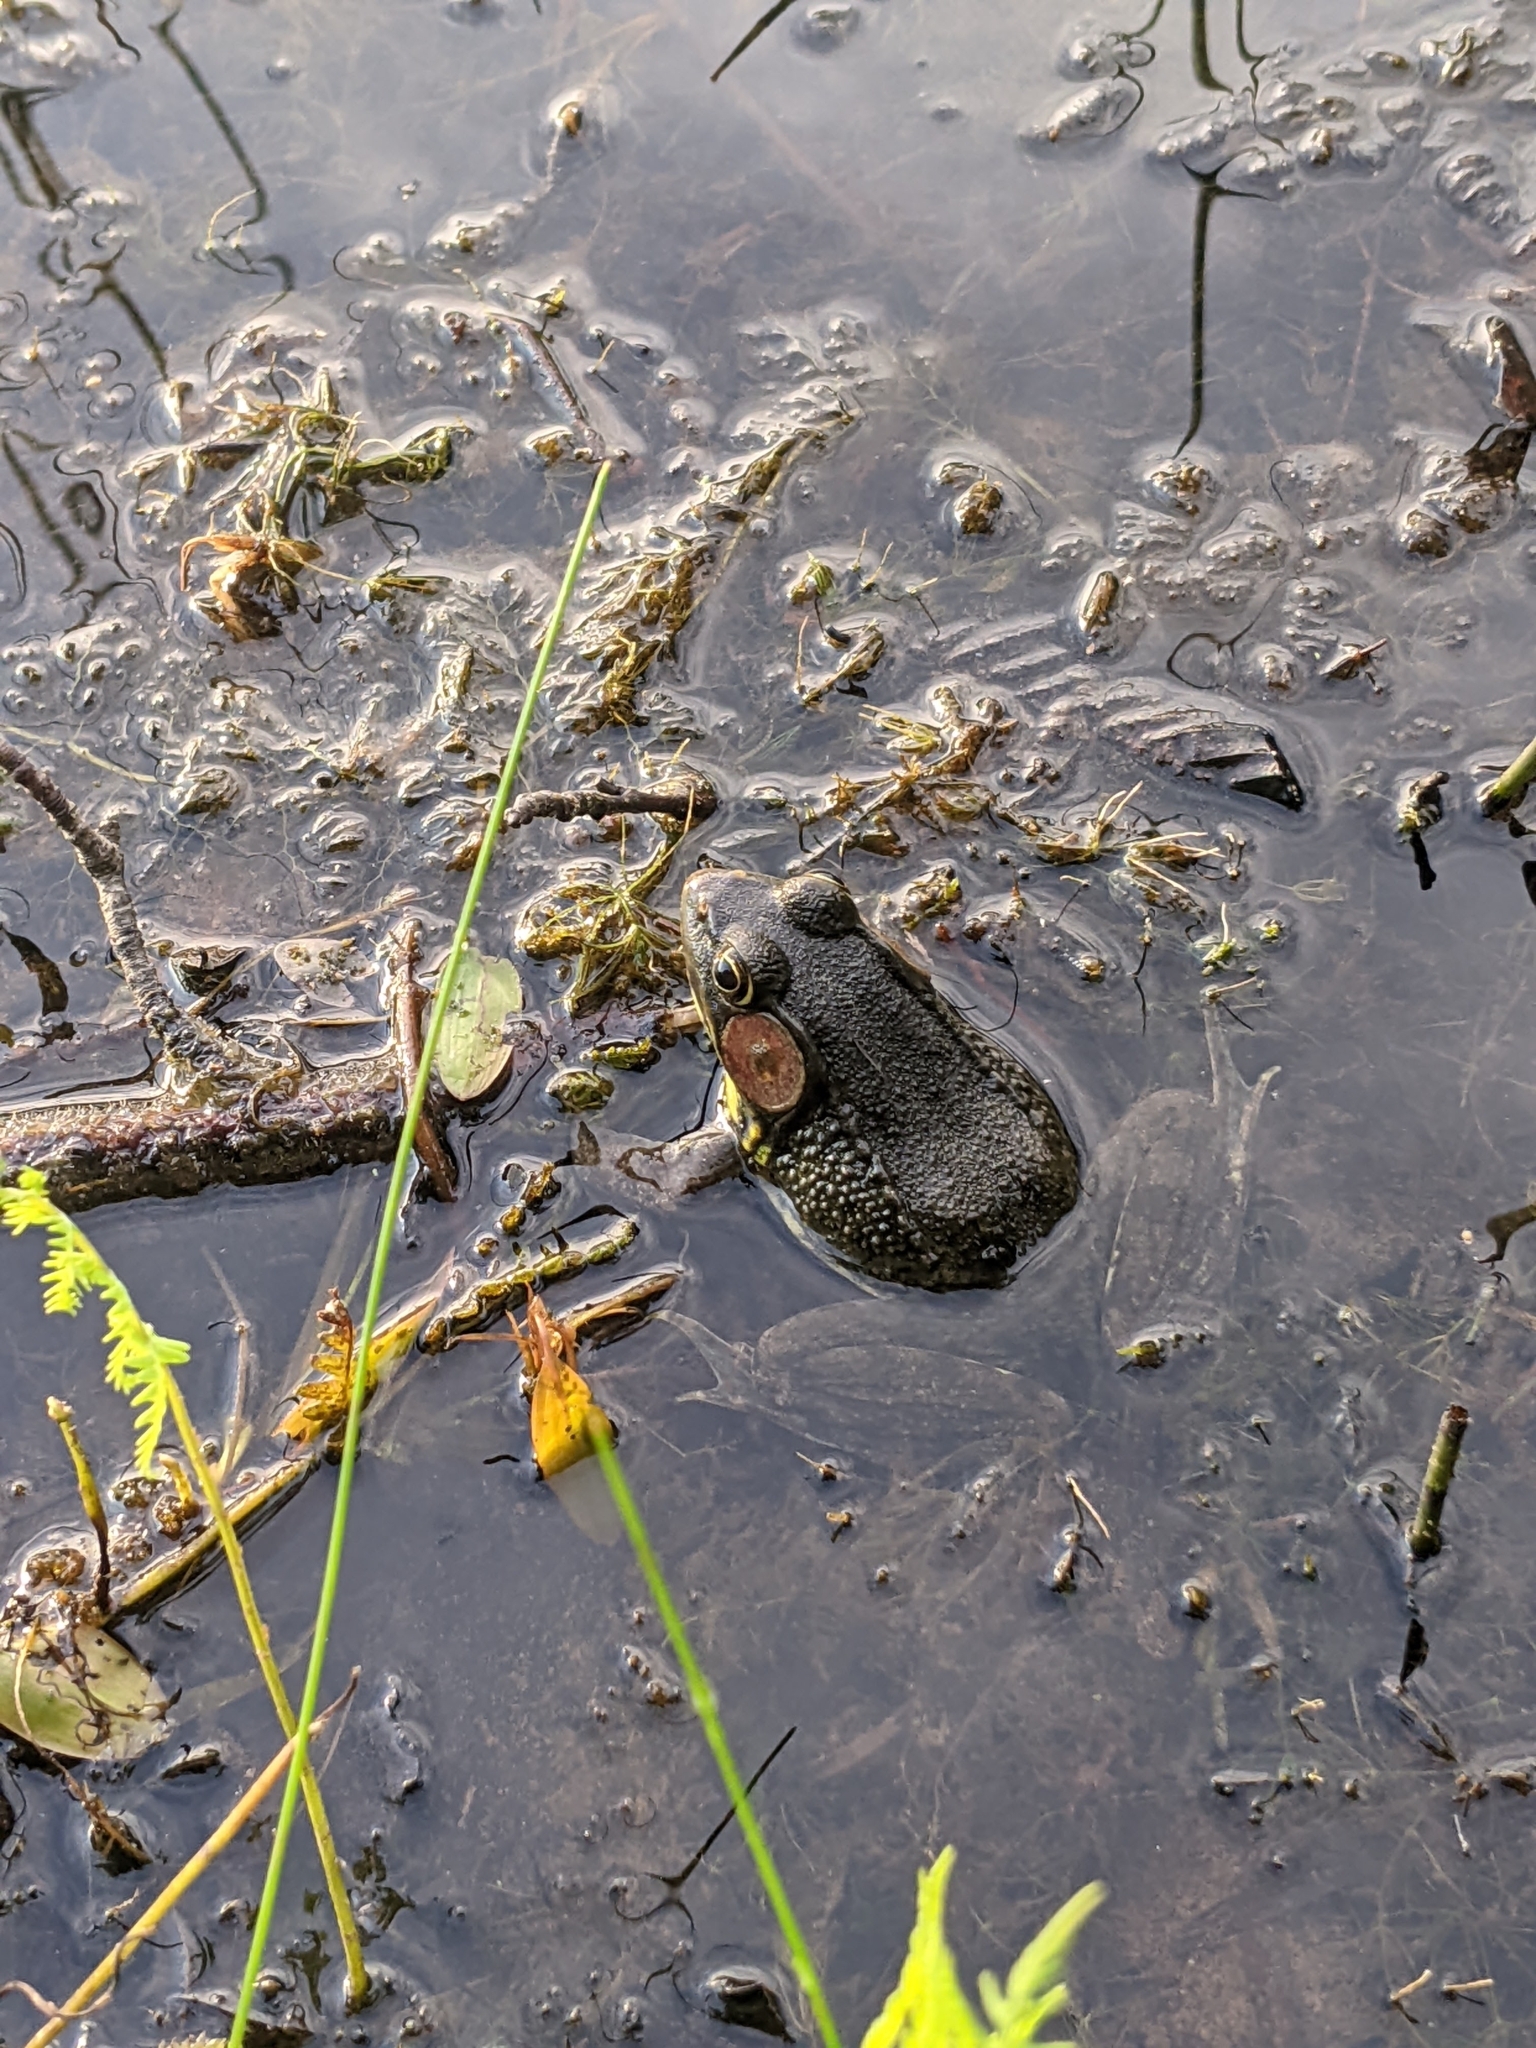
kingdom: Animalia
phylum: Chordata
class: Amphibia
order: Anura
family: Ranidae
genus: Lithobates
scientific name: Lithobates catesbeianus
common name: American bullfrog
